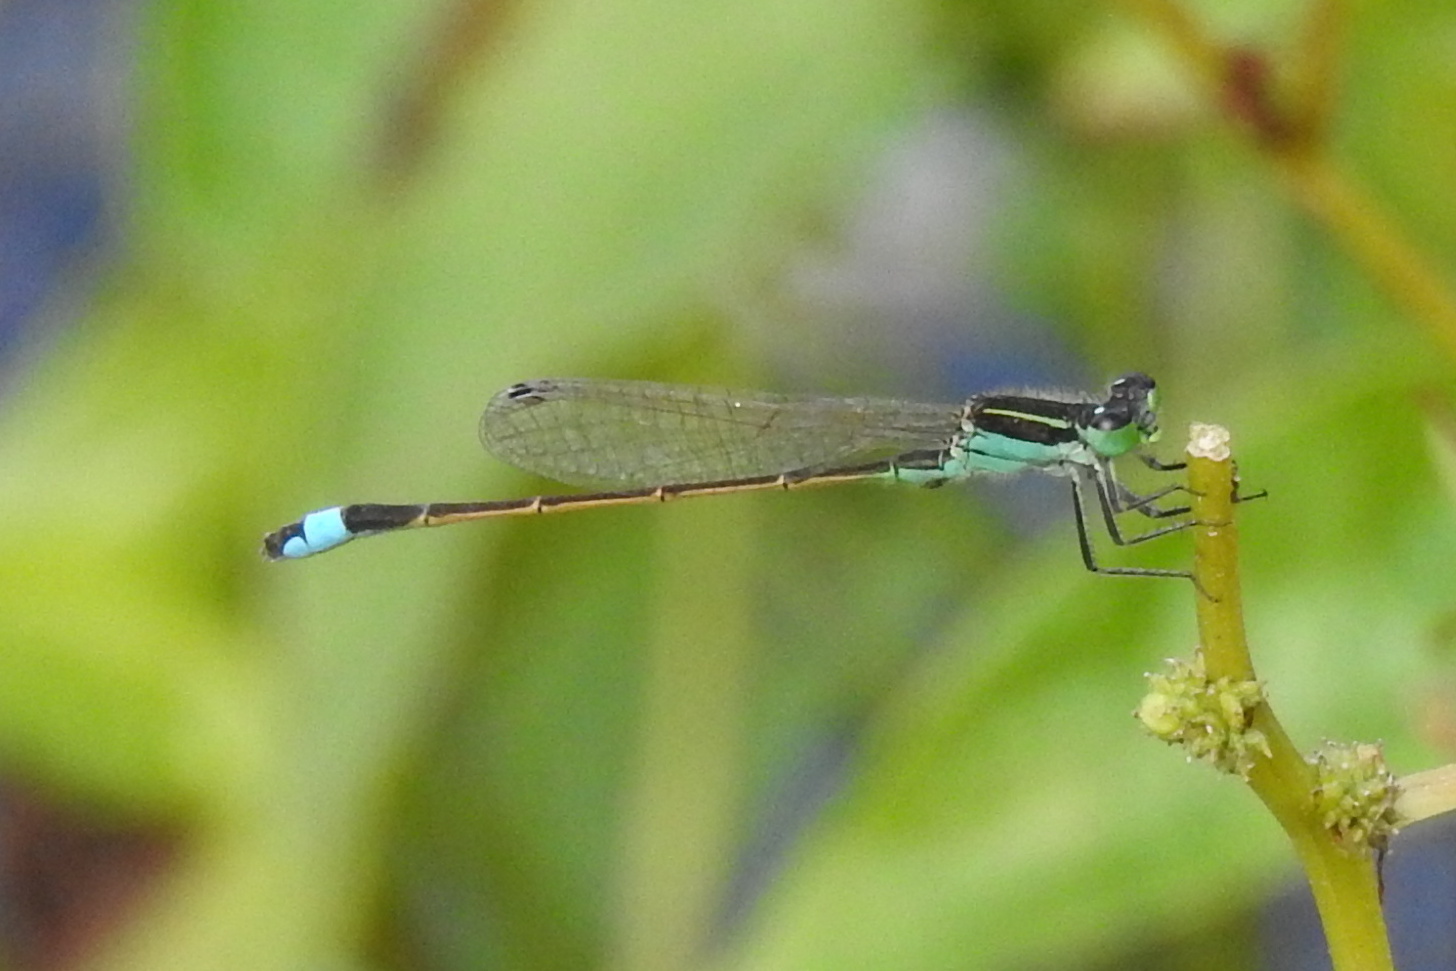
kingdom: Animalia
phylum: Arthropoda
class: Insecta
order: Odonata
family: Coenagrionidae
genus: Ischnura
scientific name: Ischnura ramburii
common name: Rambur's forktail
